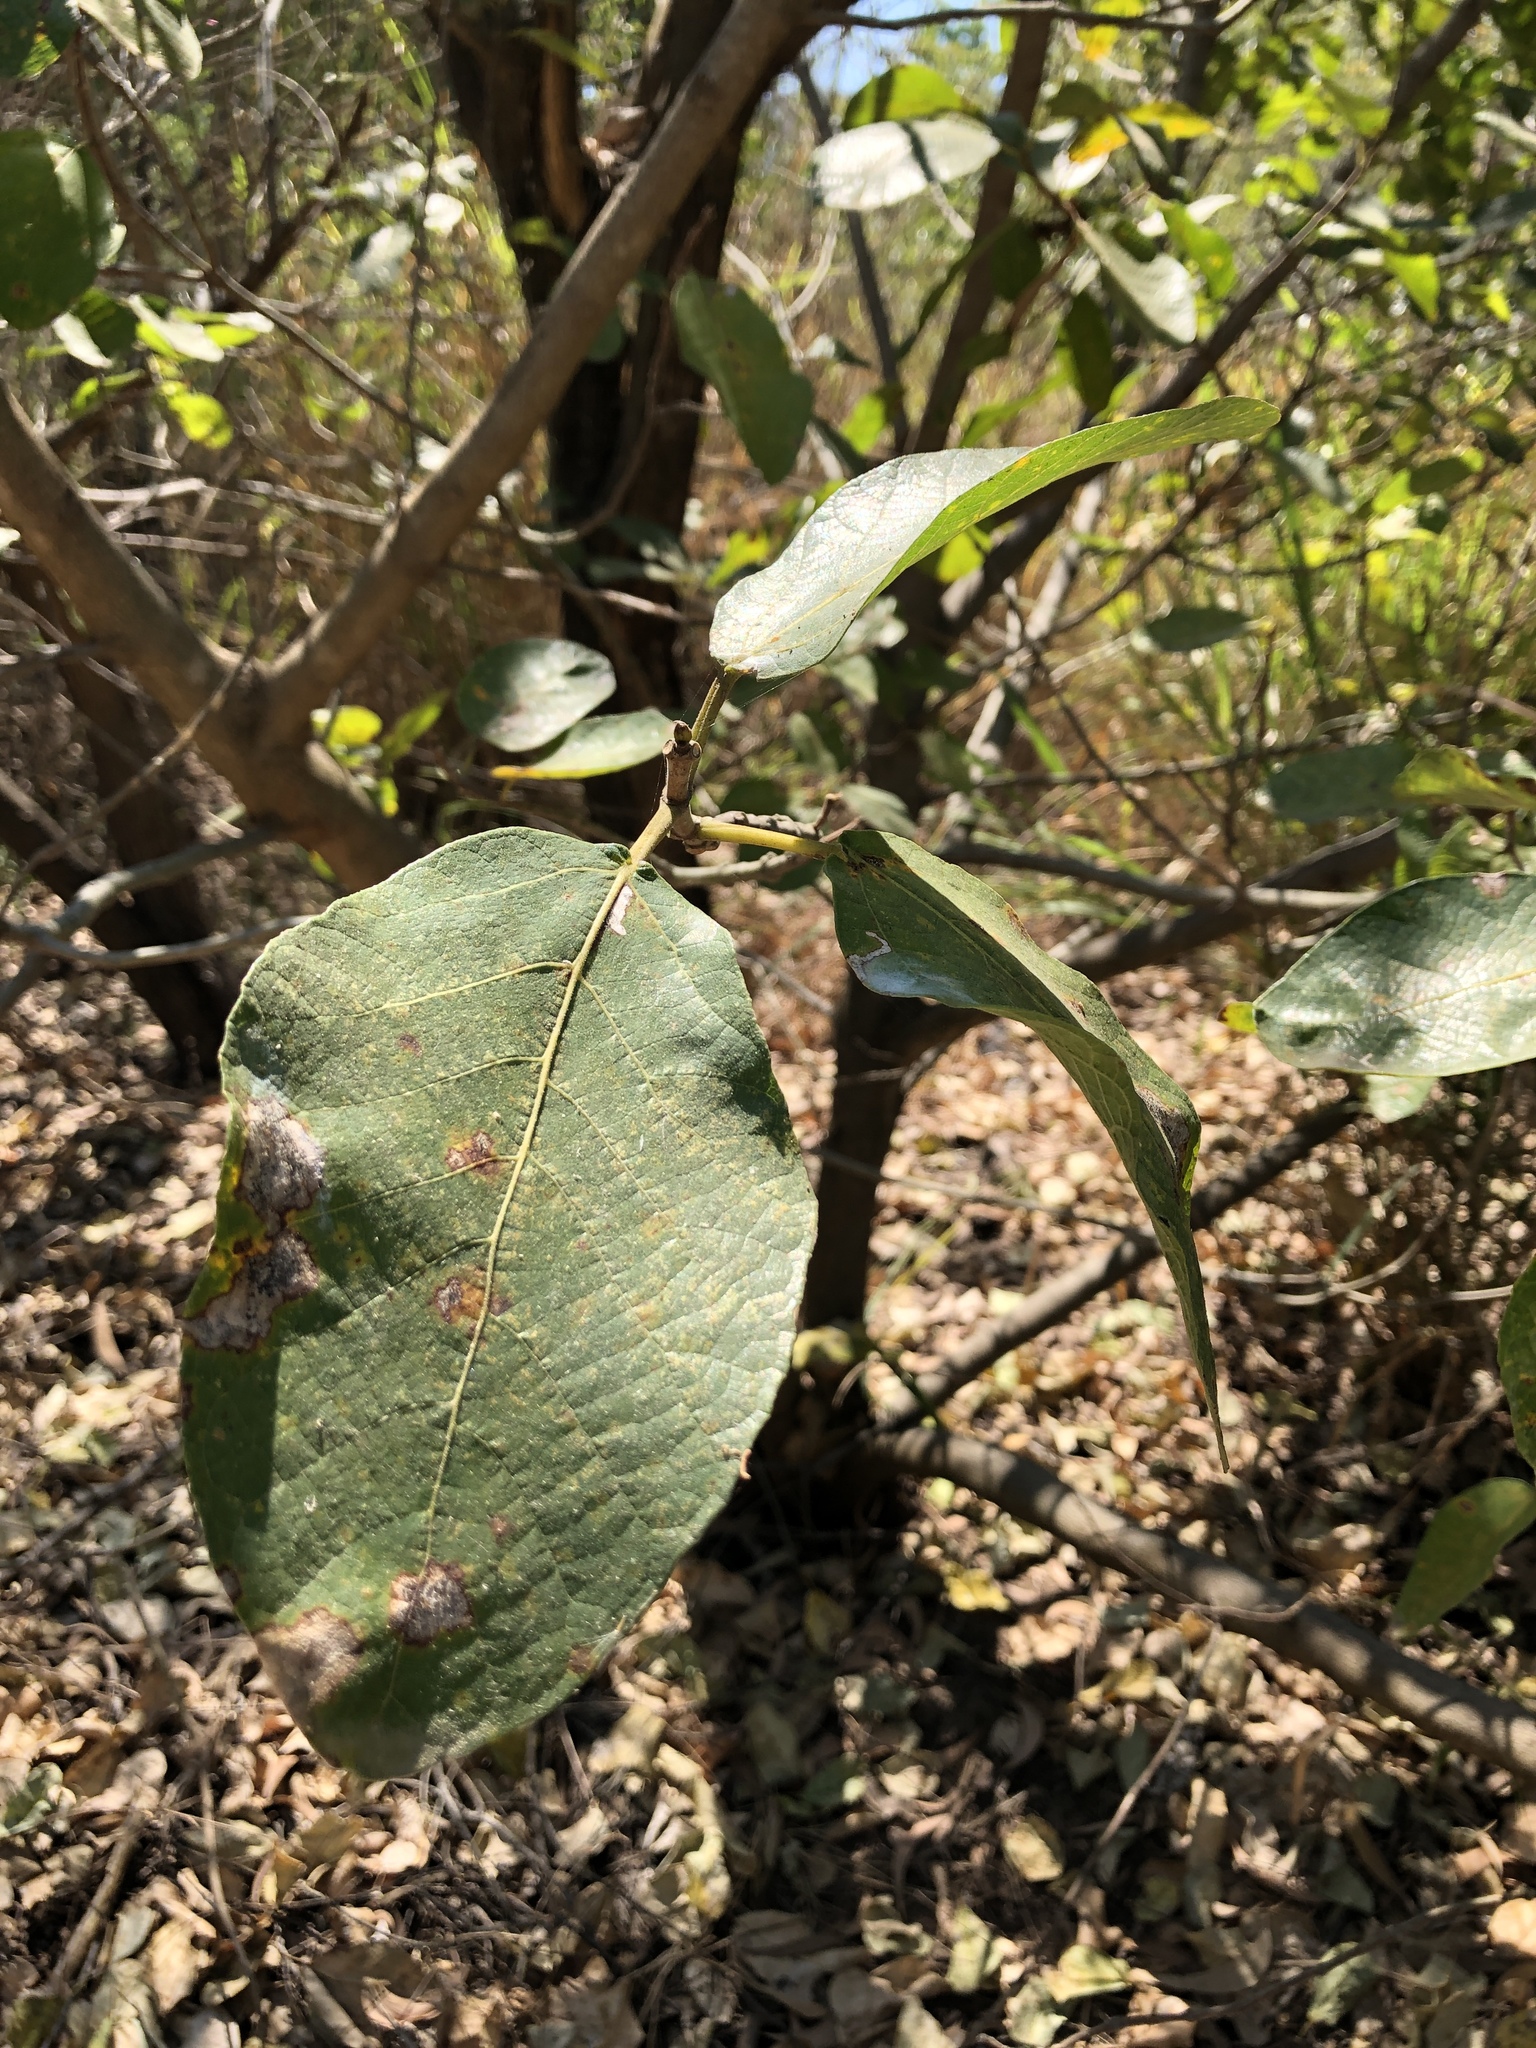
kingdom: Plantae
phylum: Tracheophyta
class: Magnoliopsida
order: Rosales
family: Moraceae
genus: Ficus
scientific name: Ficus opposita
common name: Figwood
